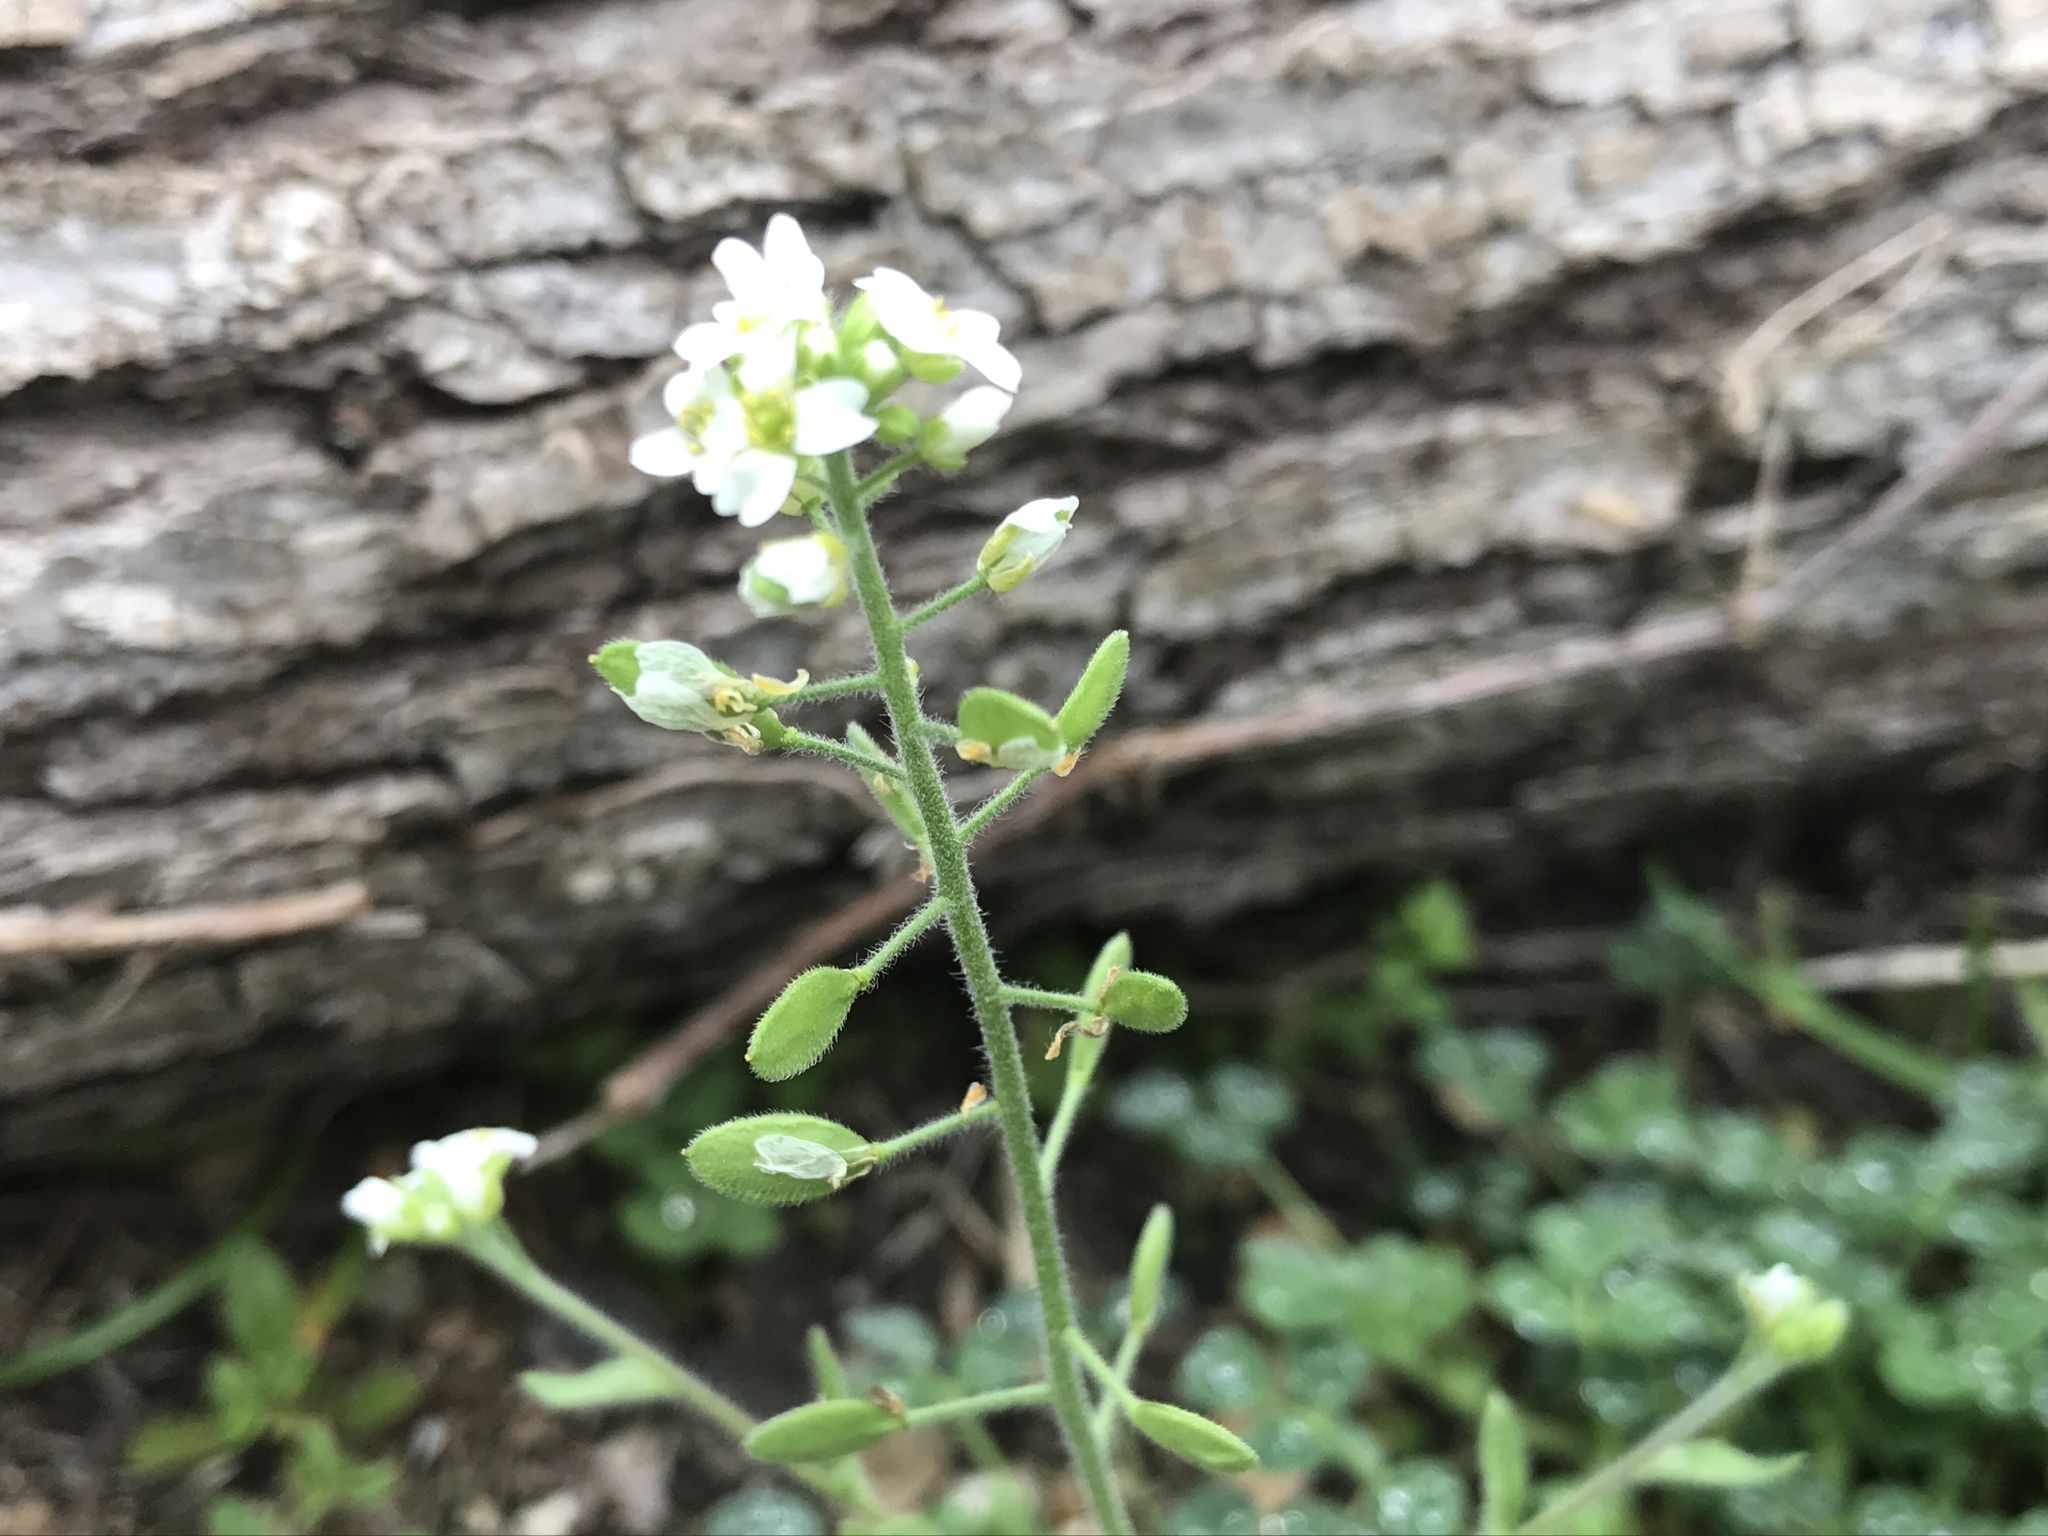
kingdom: Plantae
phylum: Tracheophyta
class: Magnoliopsida
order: Brassicales
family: Brassicaceae
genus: Tomostima
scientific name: Tomostima platycarpa
